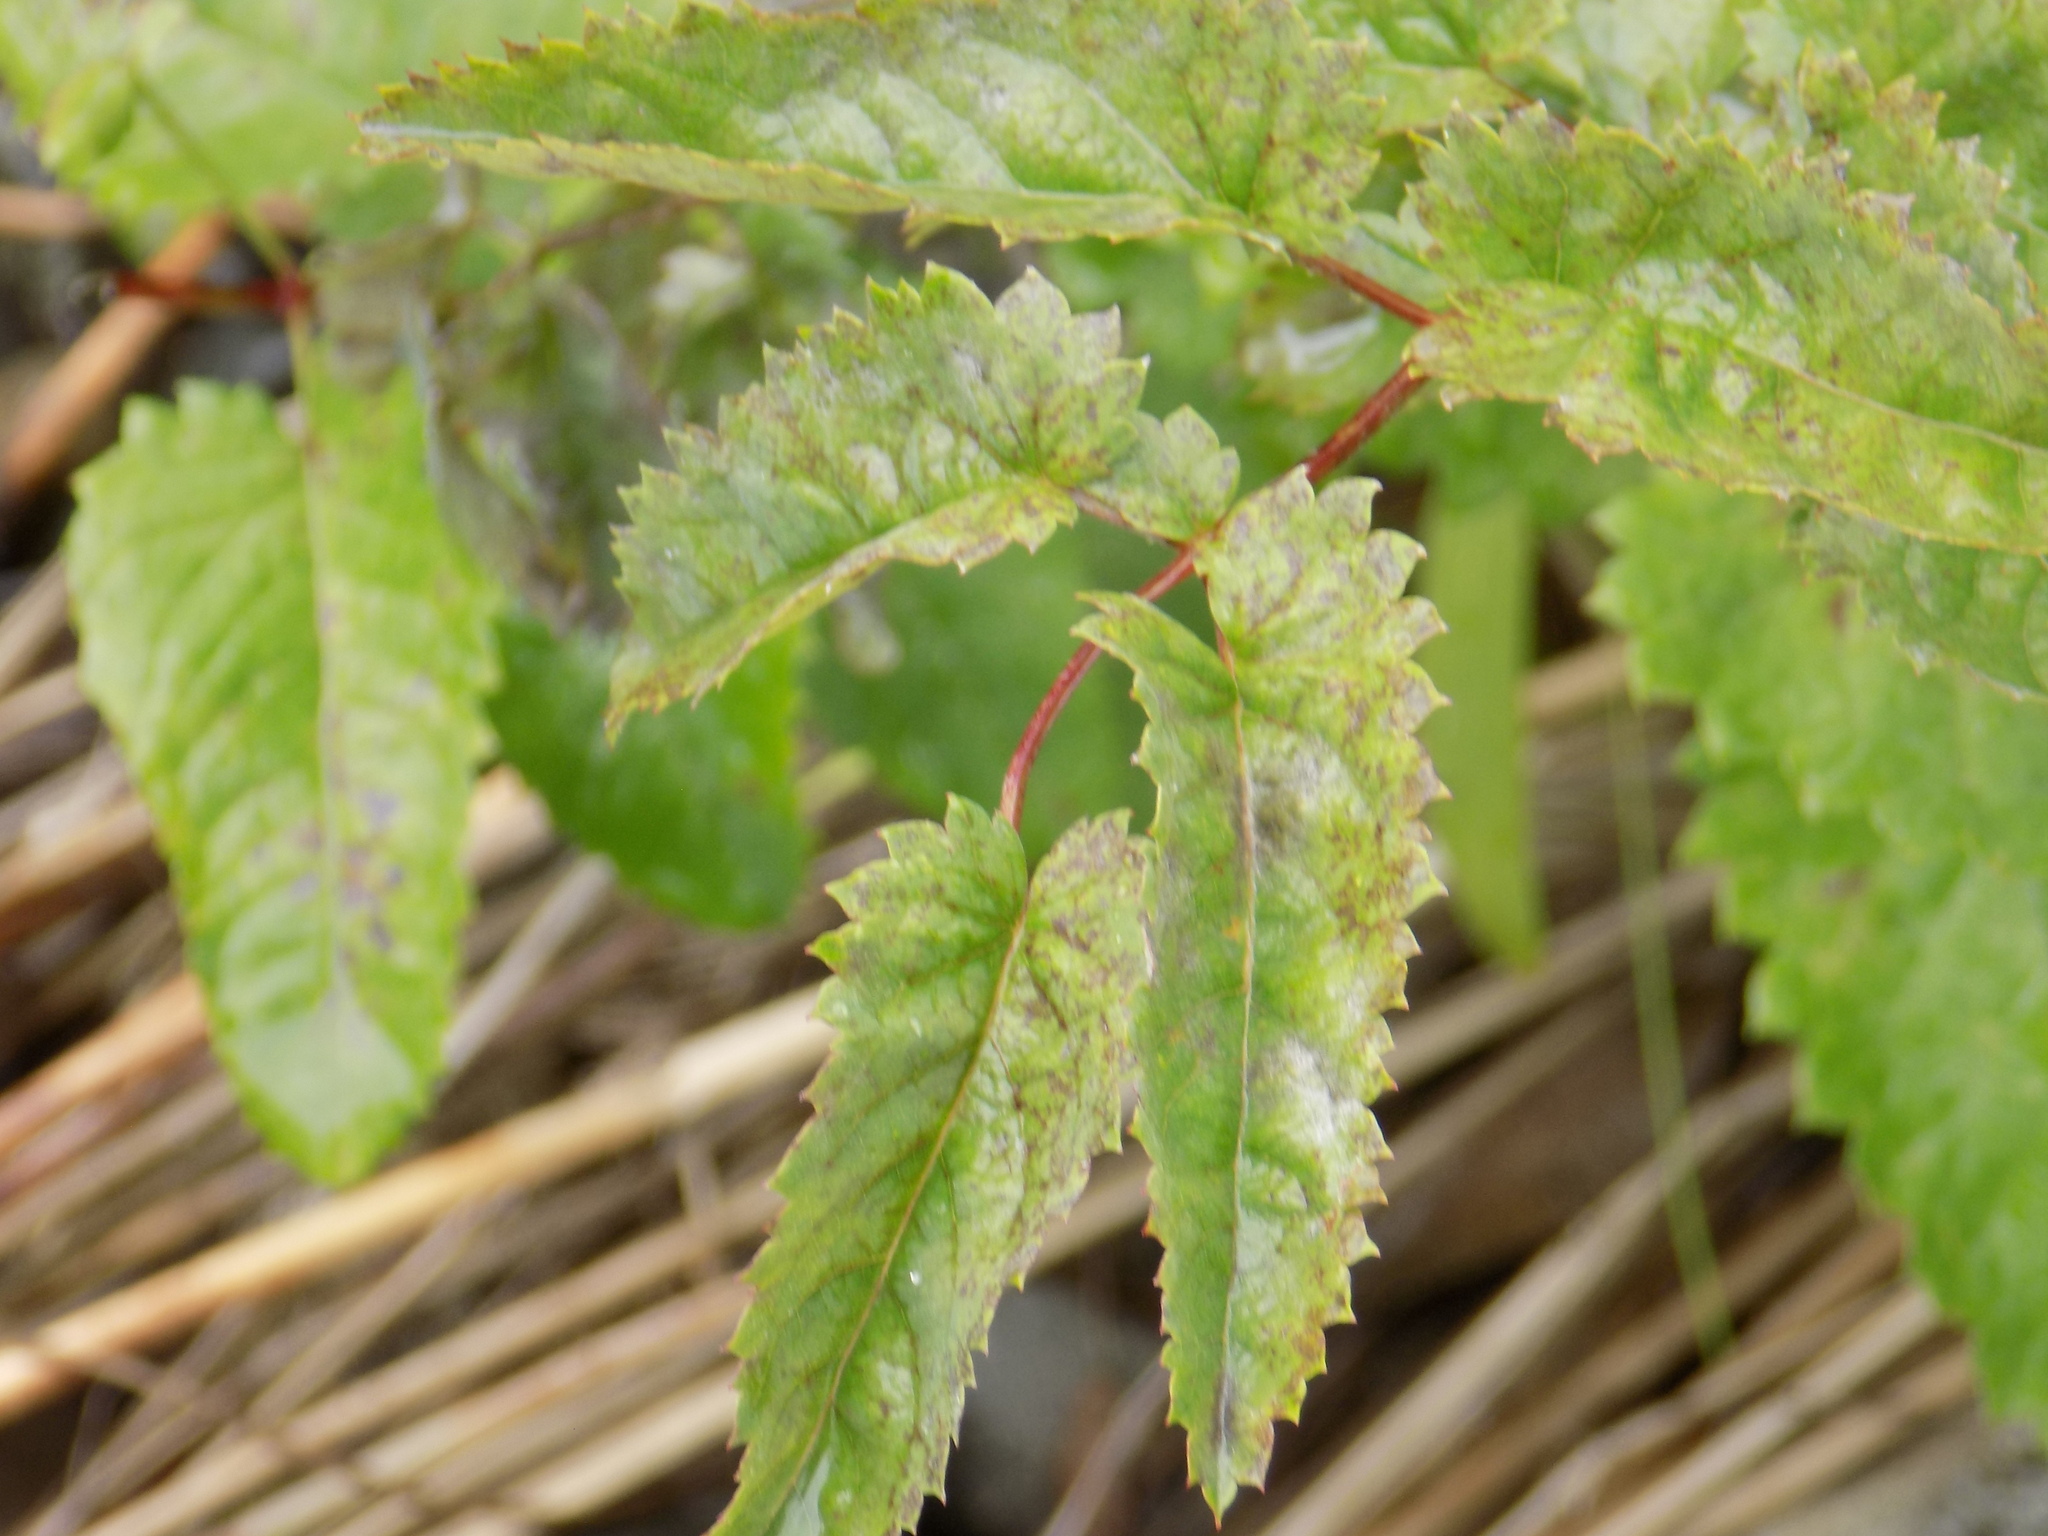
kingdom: Plantae
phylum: Tracheophyta
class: Magnoliopsida
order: Rosales
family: Rosaceae
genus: Sanguisorba
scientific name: Sanguisorba officinalis
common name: Great burnet
